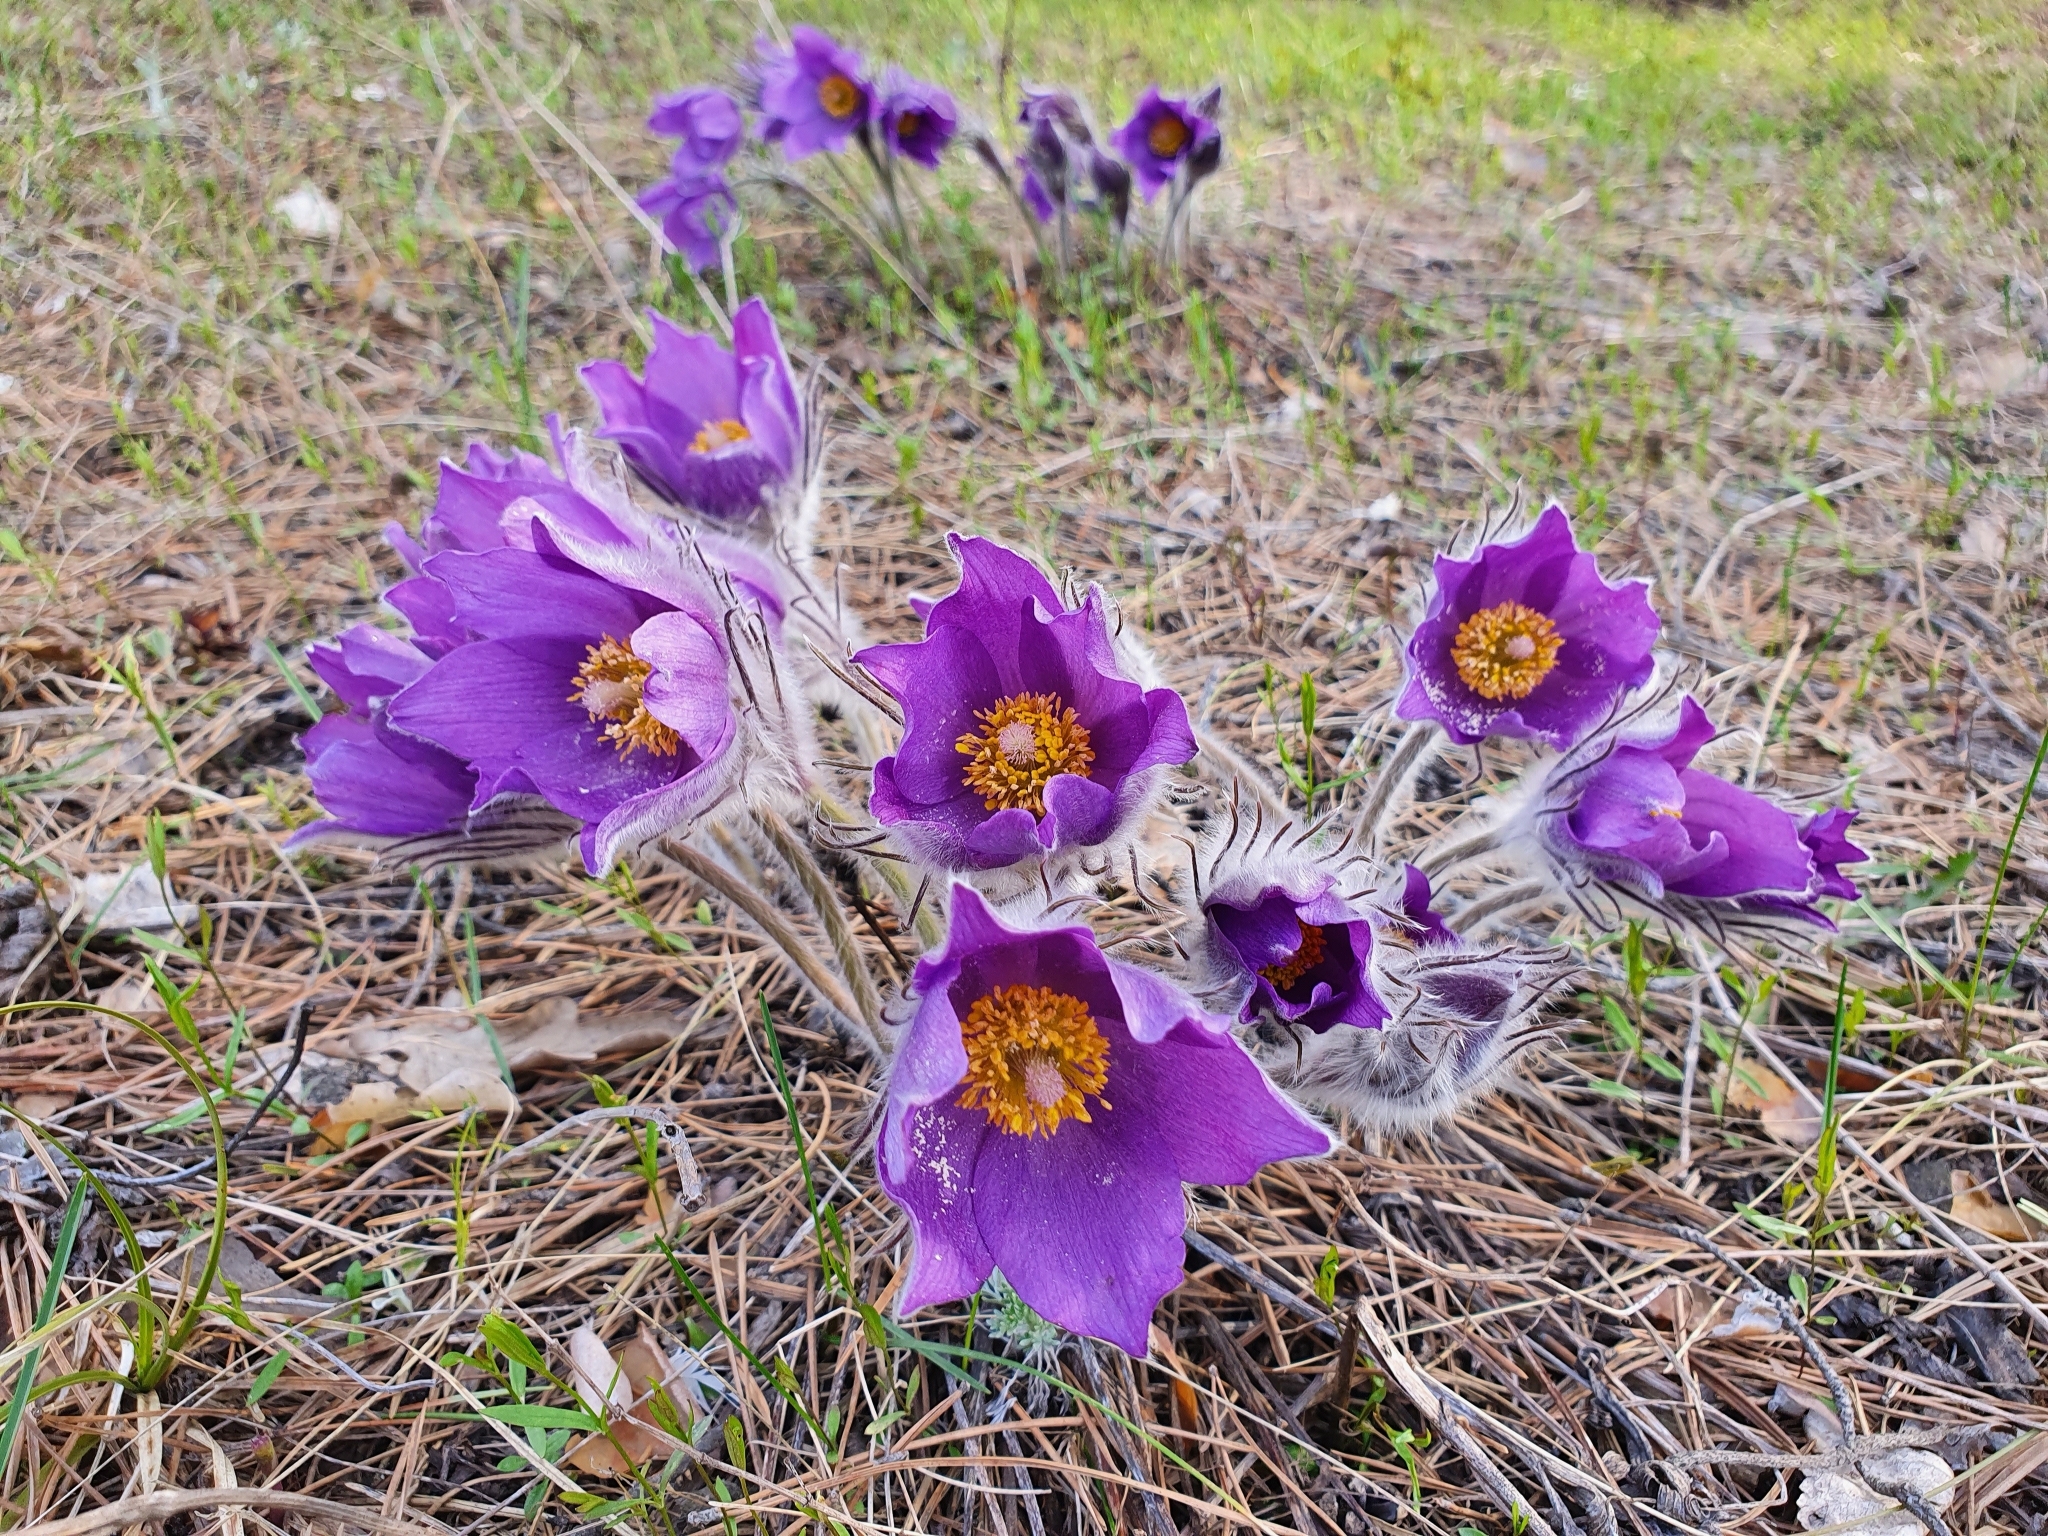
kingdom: Plantae
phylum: Tracheophyta
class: Magnoliopsida
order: Ranunculales
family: Ranunculaceae
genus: Pulsatilla
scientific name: Pulsatilla patens
